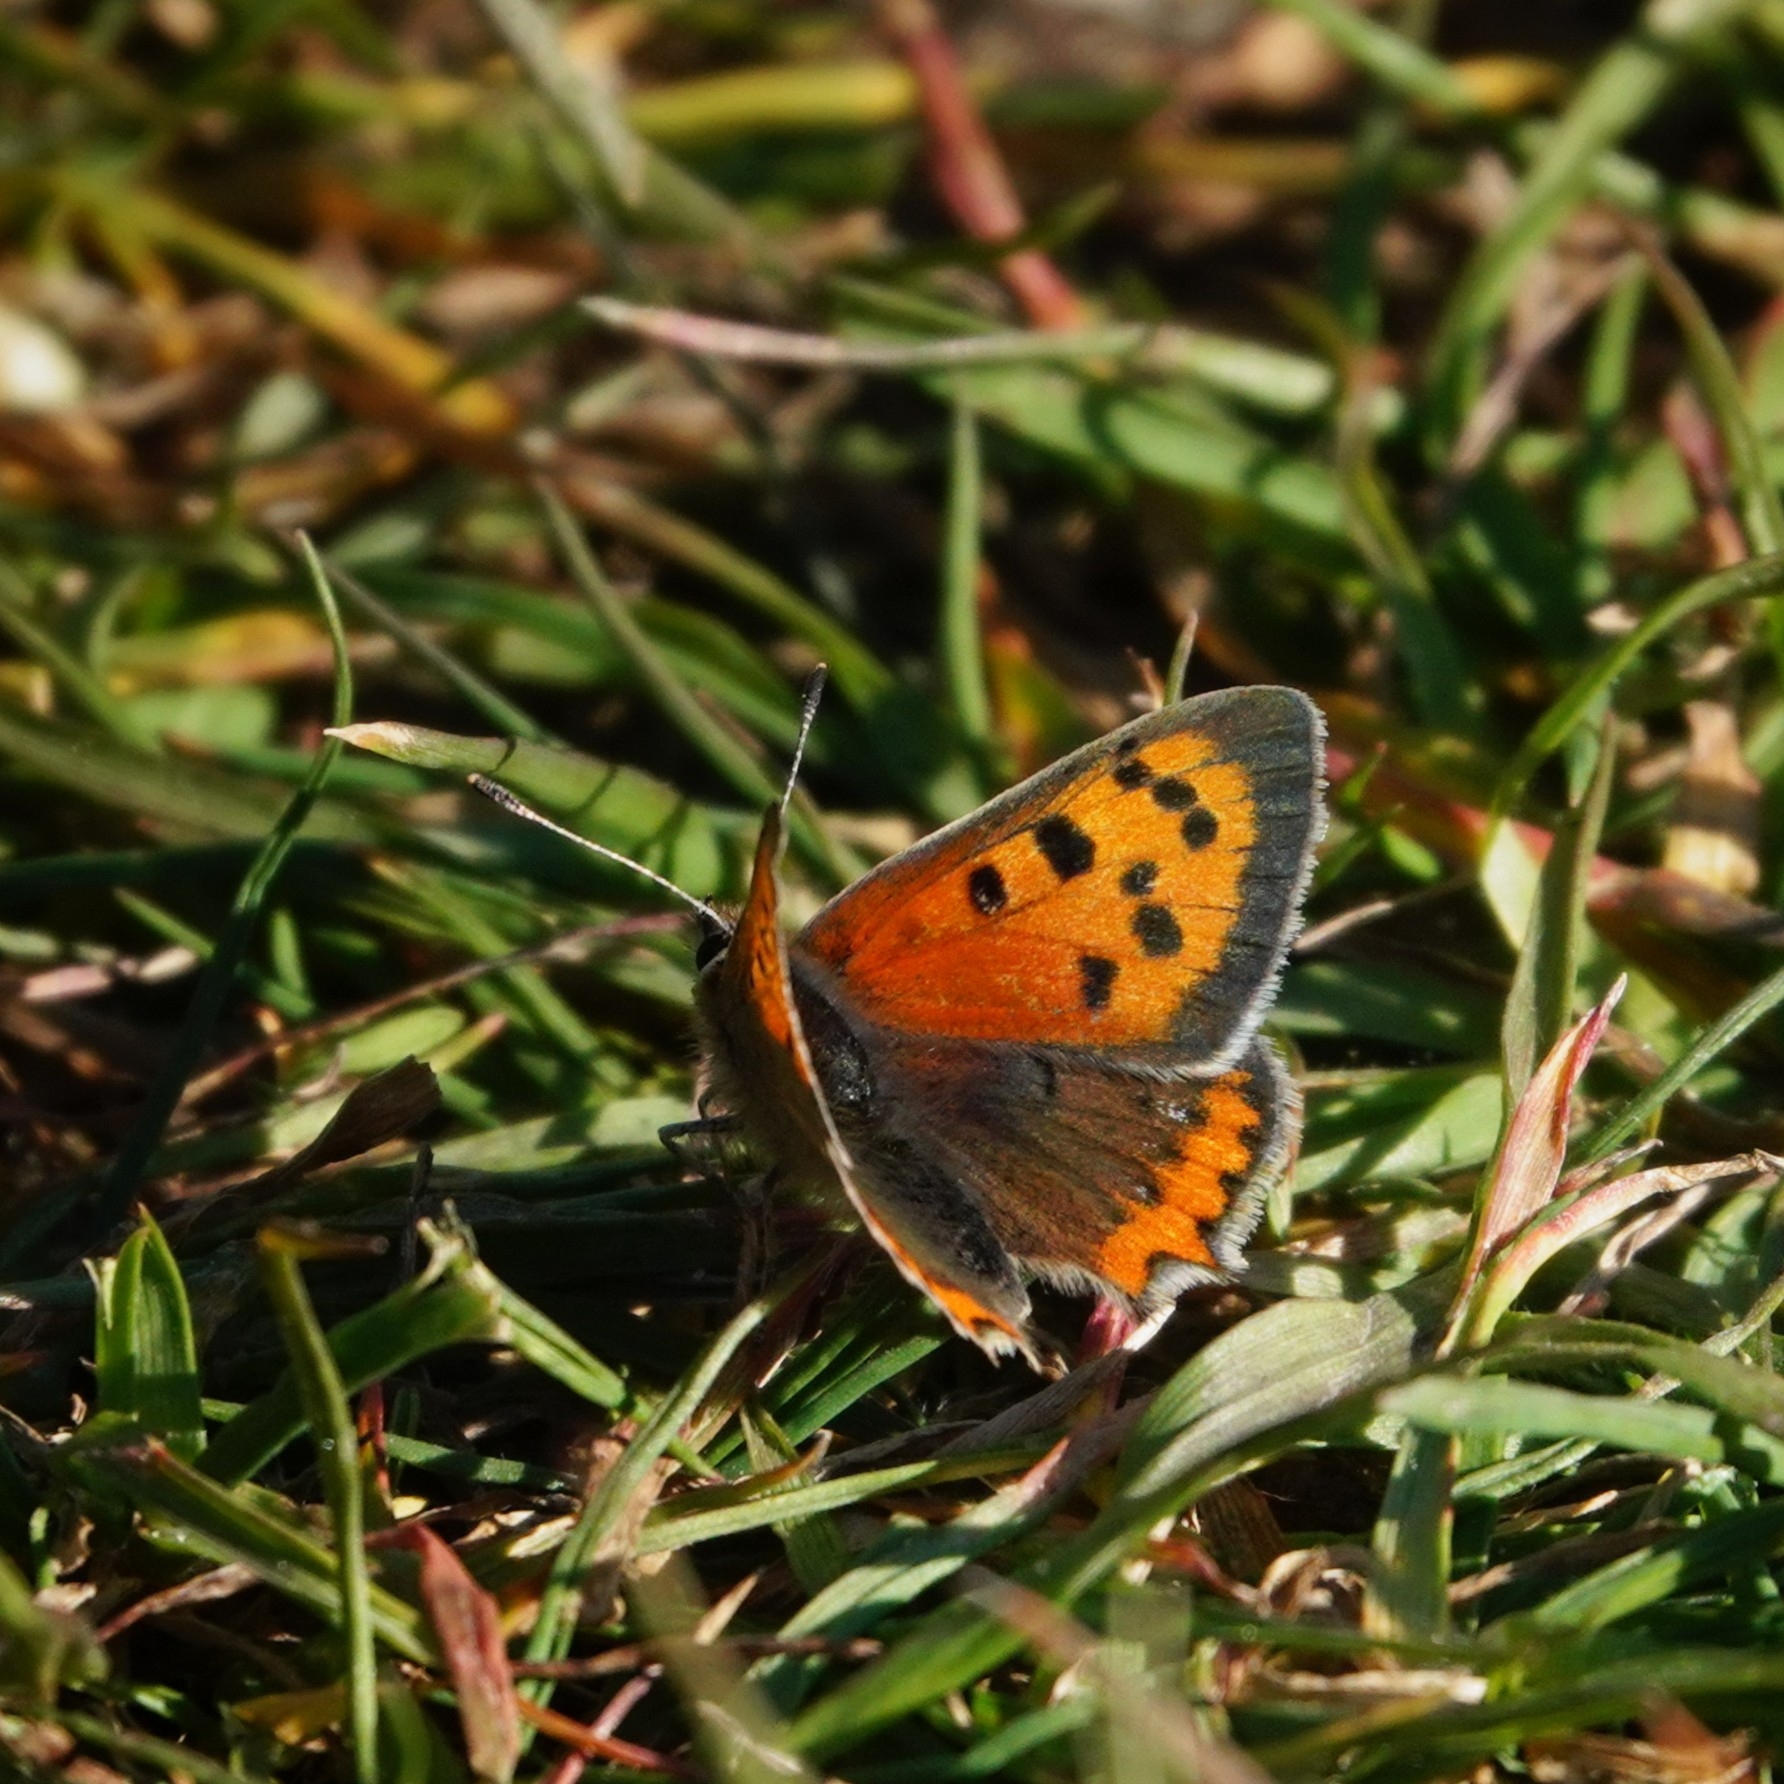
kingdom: Animalia
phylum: Arthropoda
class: Insecta
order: Lepidoptera
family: Lycaenidae
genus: Lycaena
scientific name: Lycaena phlaeas
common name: Small copper
